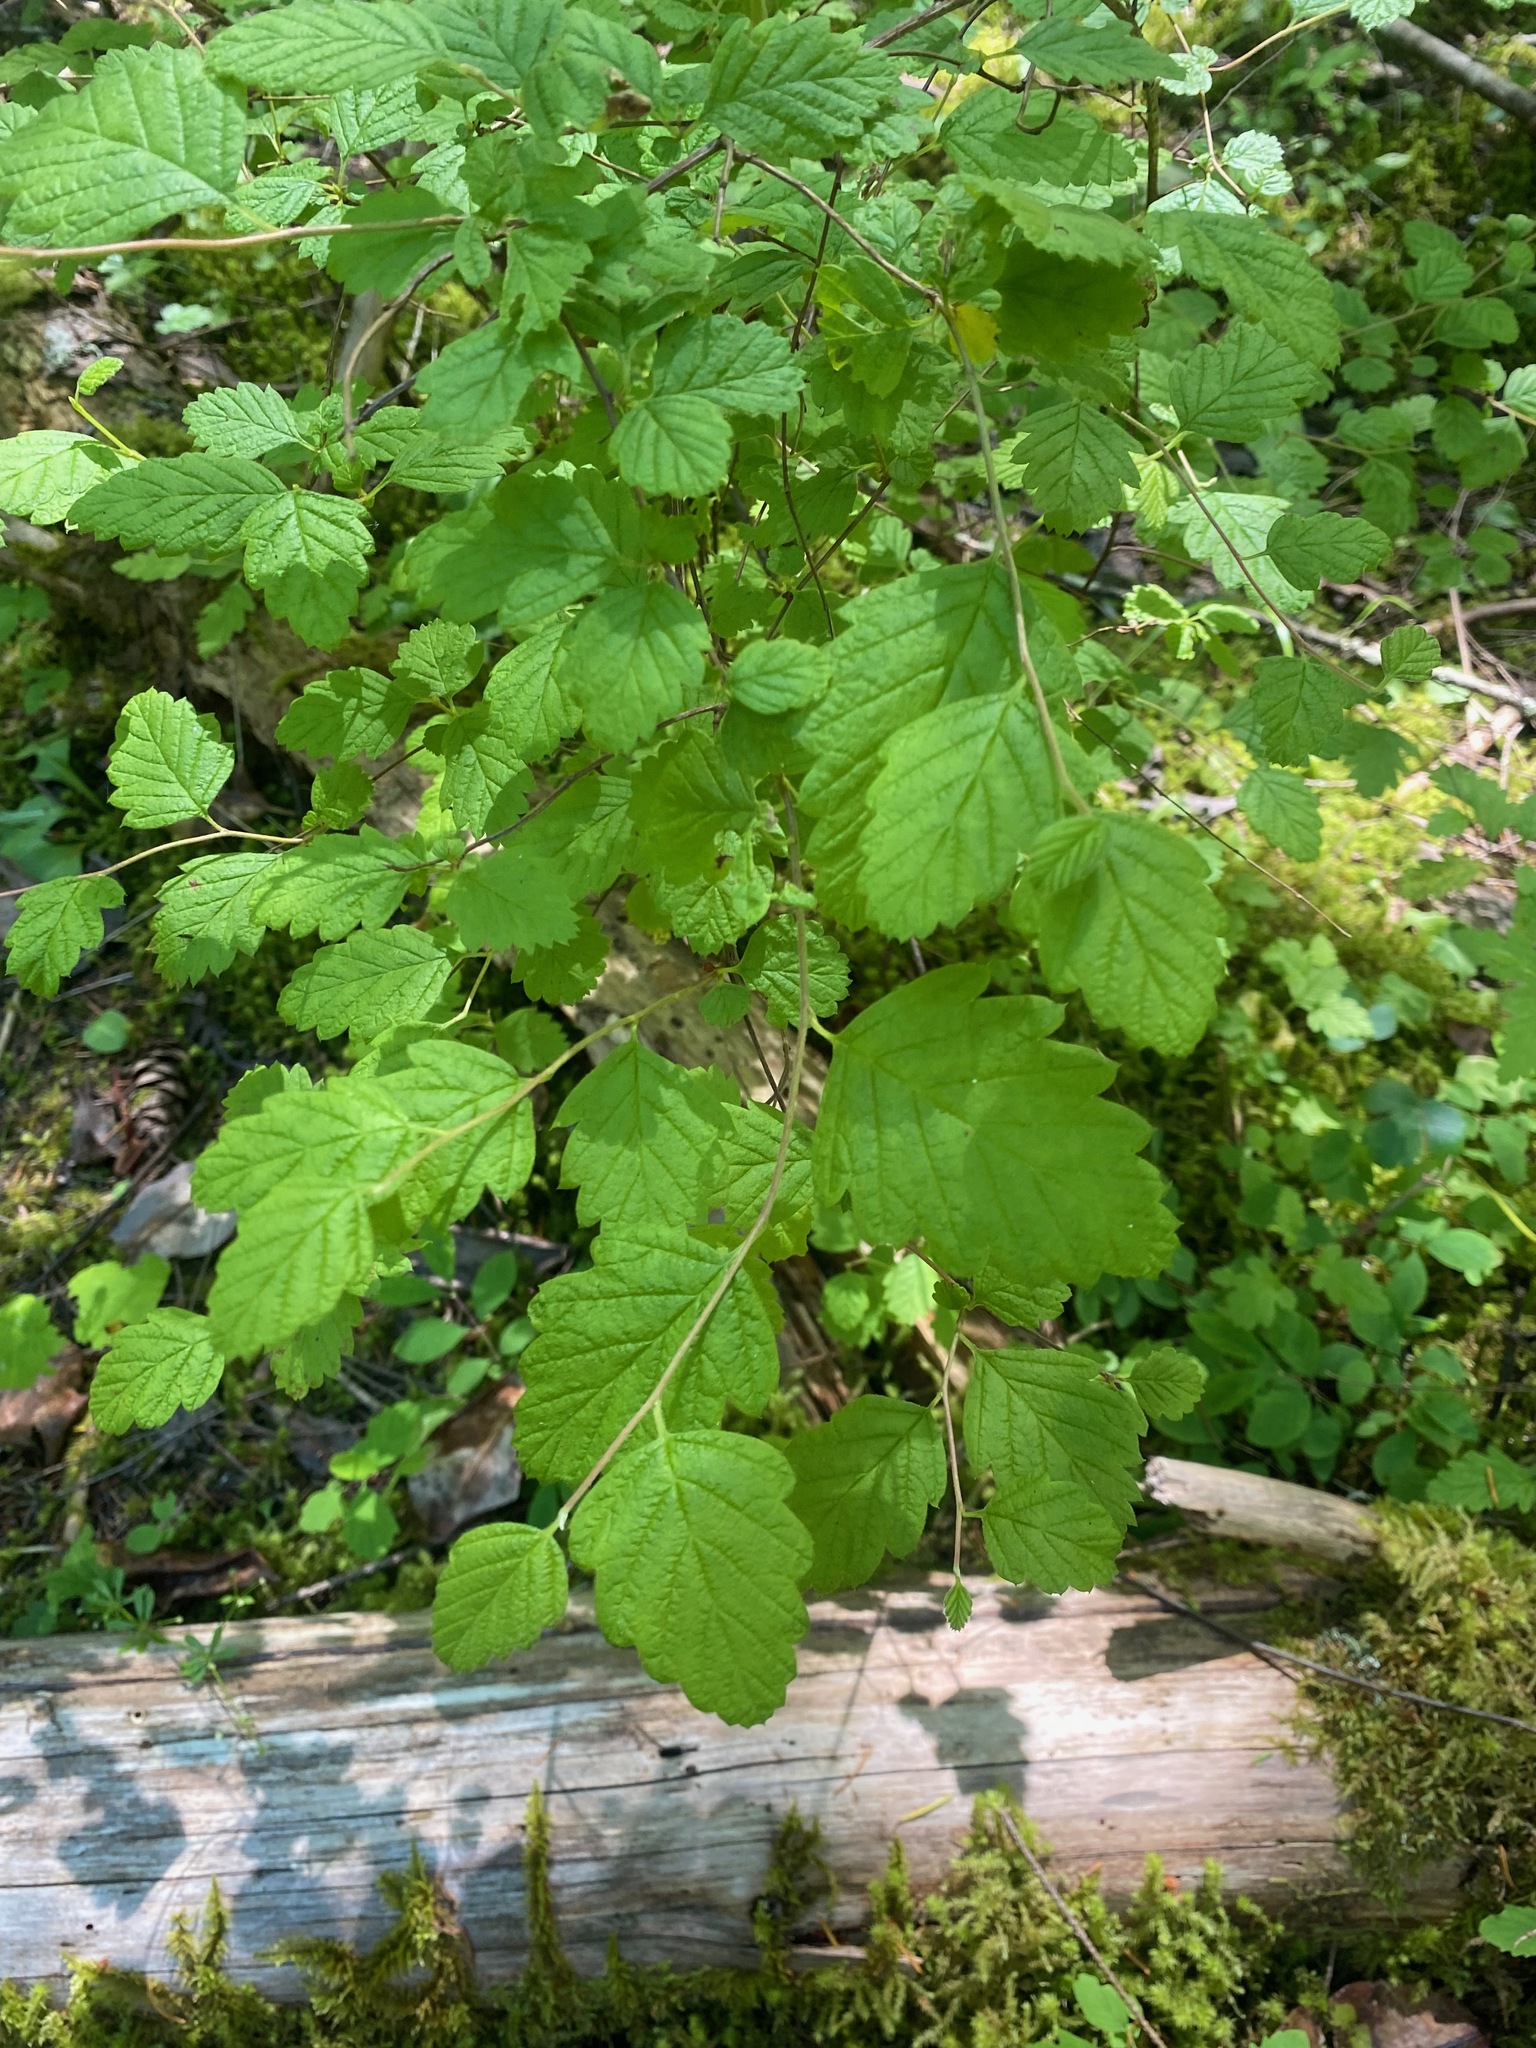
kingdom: Plantae
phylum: Tracheophyta
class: Magnoliopsida
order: Rosales
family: Rosaceae
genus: Holodiscus
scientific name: Holodiscus discolor
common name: Oceanspray
